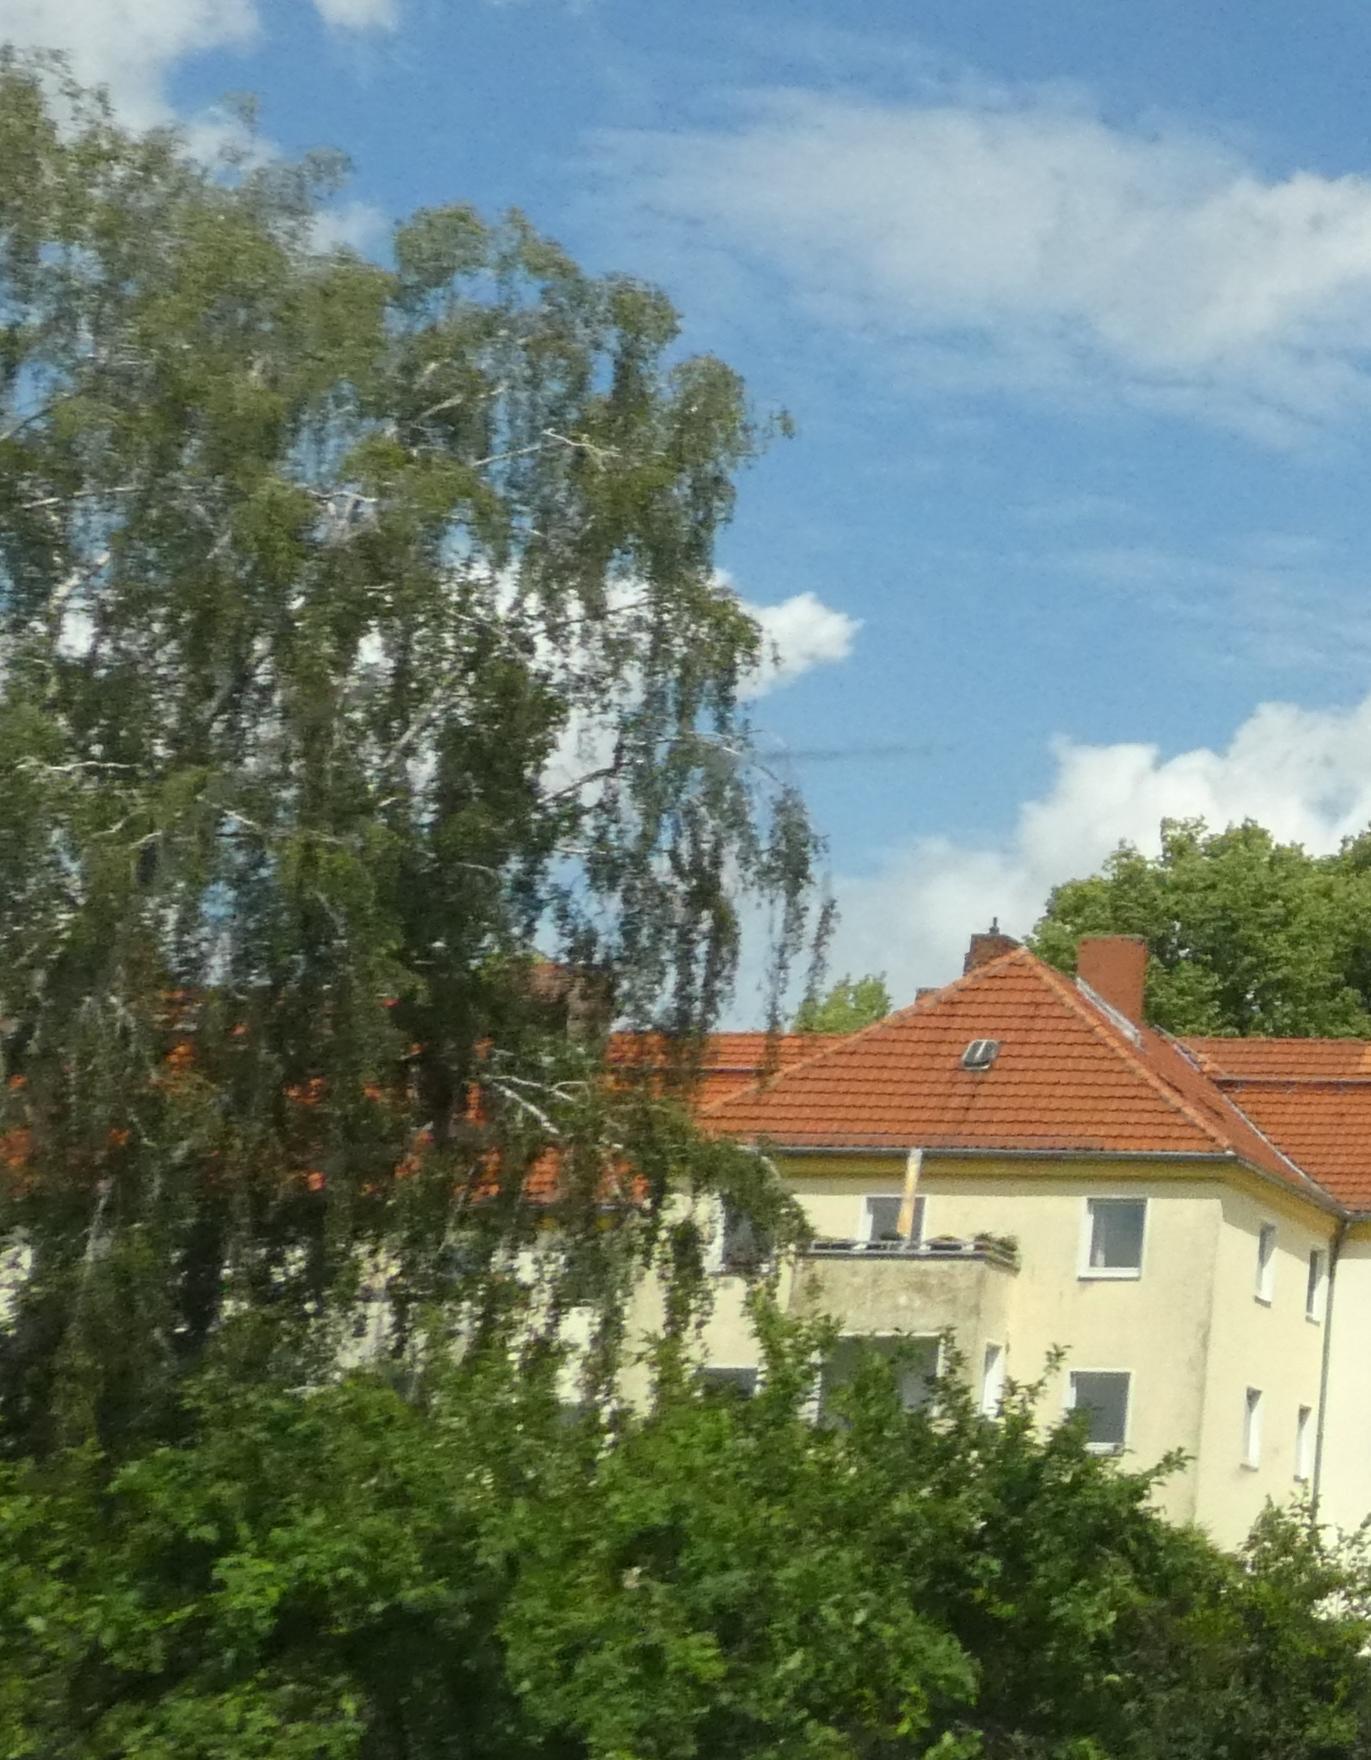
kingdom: Plantae
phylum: Tracheophyta
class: Magnoliopsida
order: Fagales
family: Betulaceae
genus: Betula
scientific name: Betula pendula
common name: Silver birch
